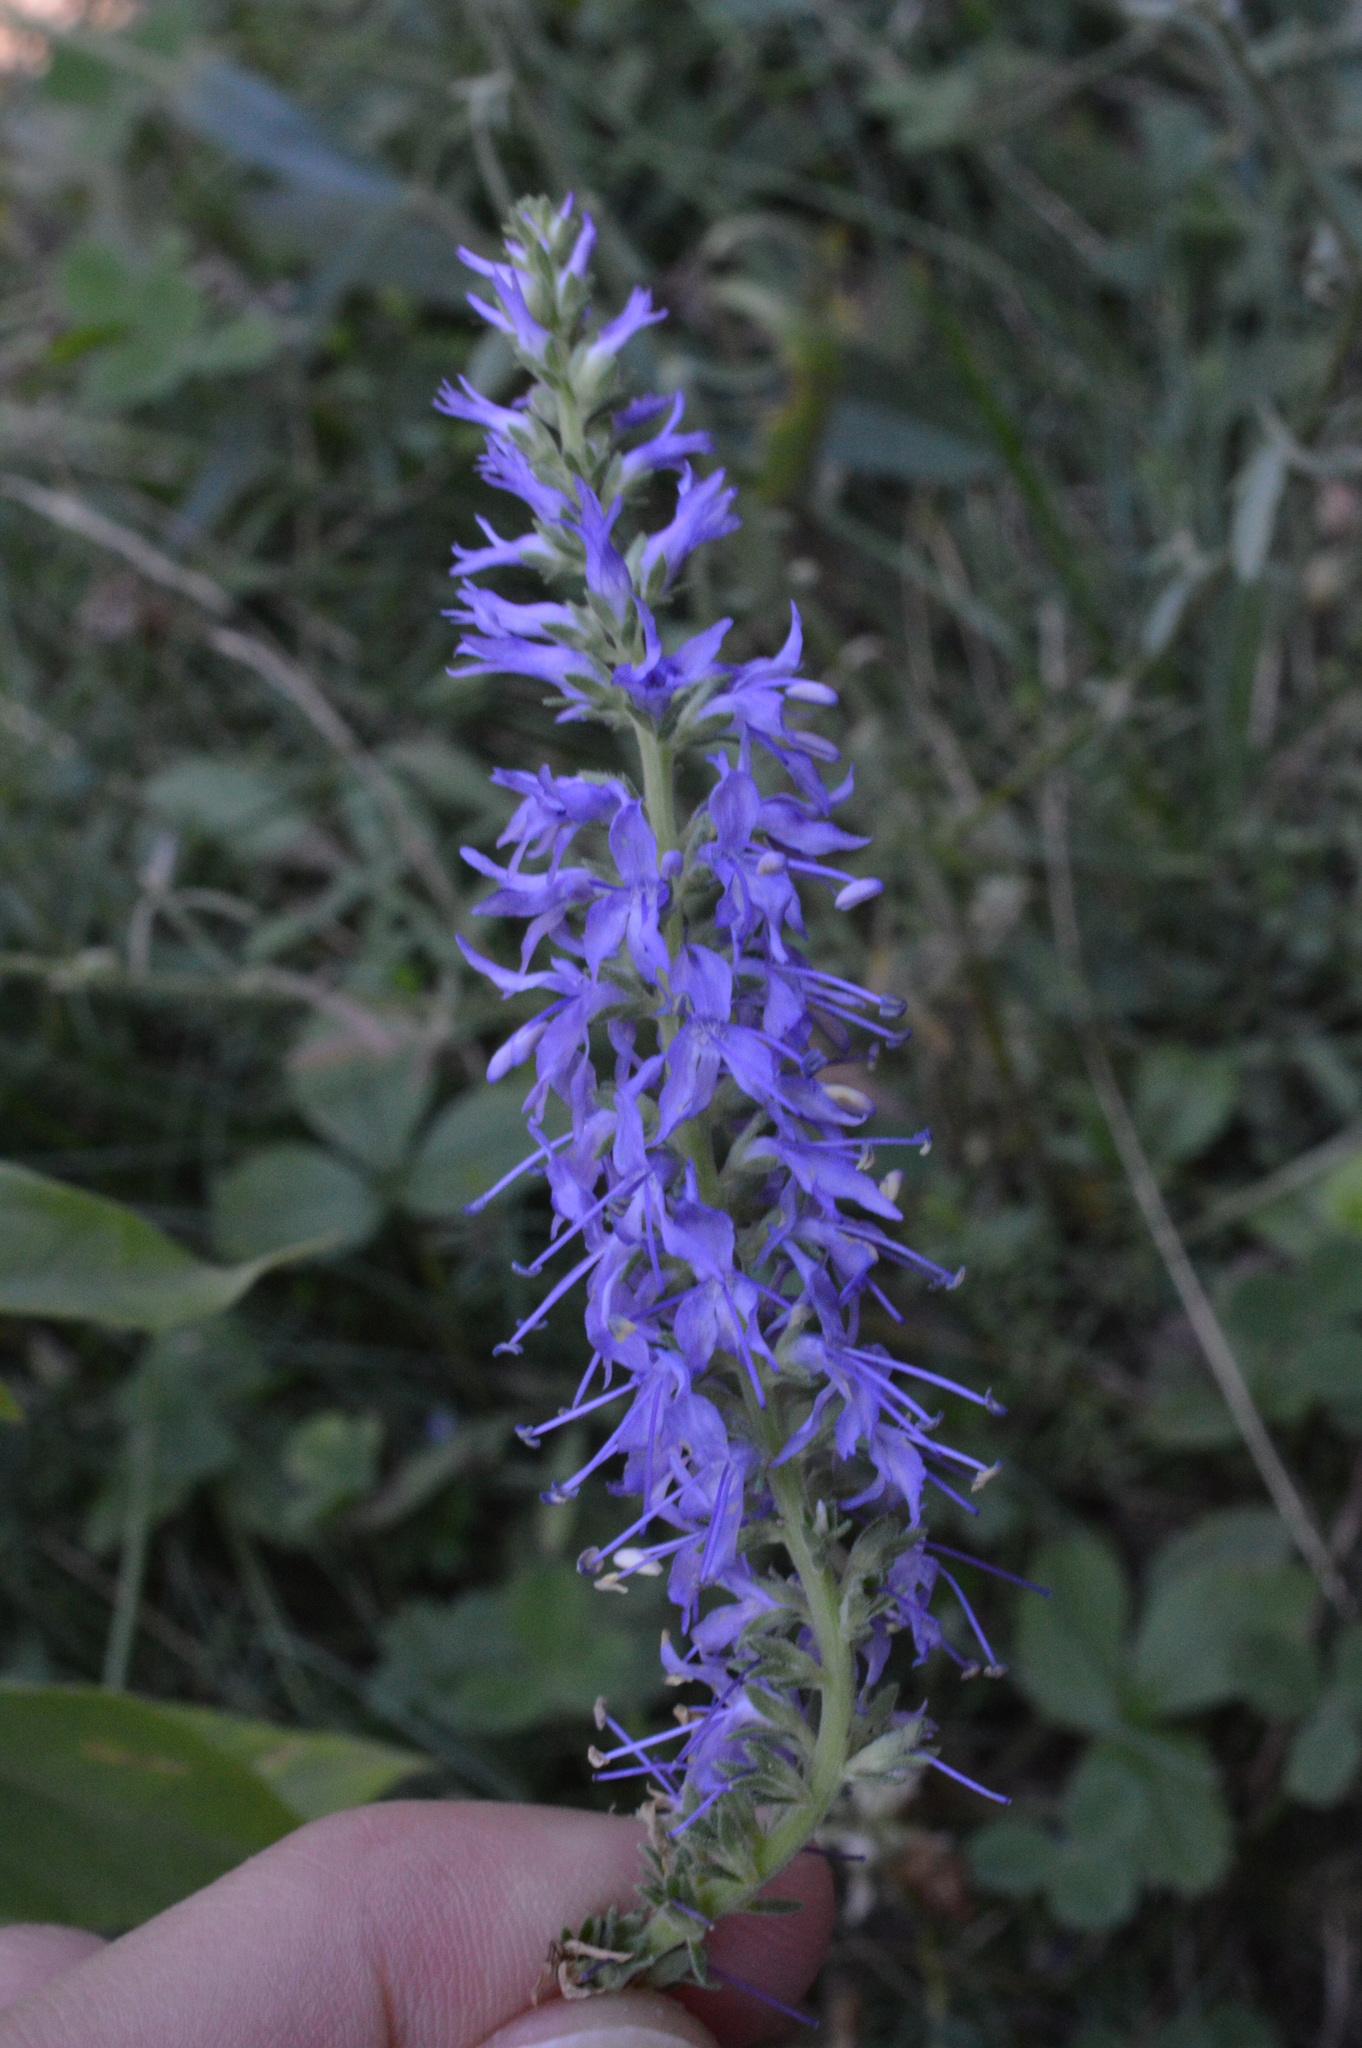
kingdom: Plantae
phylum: Tracheophyta
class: Magnoliopsida
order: Lamiales
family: Plantaginaceae
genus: Veronica
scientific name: Veronica spicata
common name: Spiked speedwell
